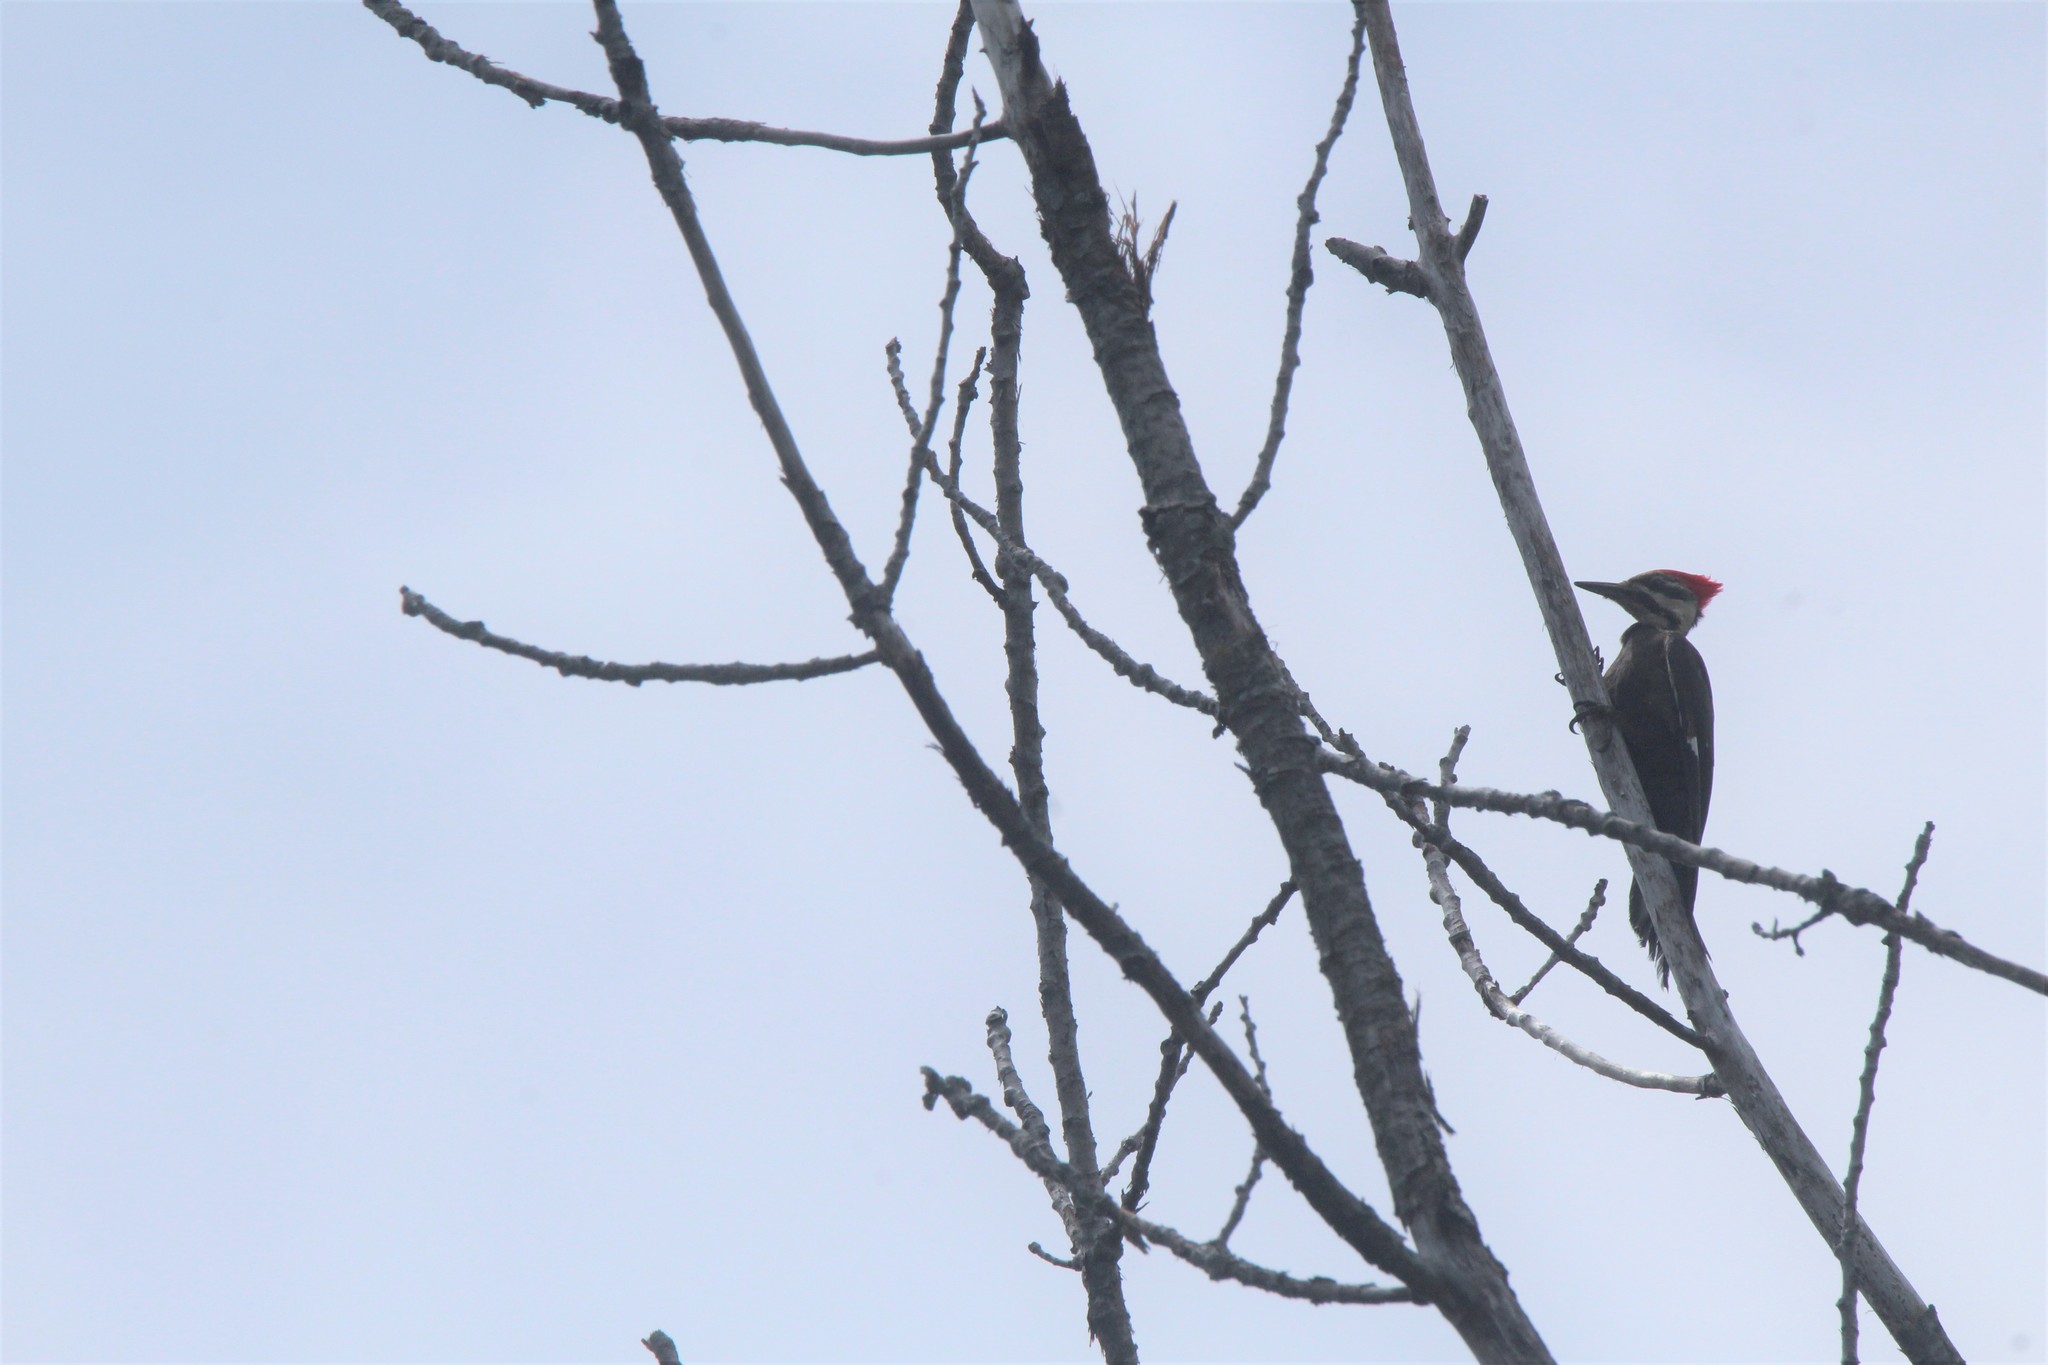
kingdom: Animalia
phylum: Chordata
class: Aves
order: Piciformes
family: Picidae
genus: Dryocopus
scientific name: Dryocopus pileatus
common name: Pileated woodpecker
